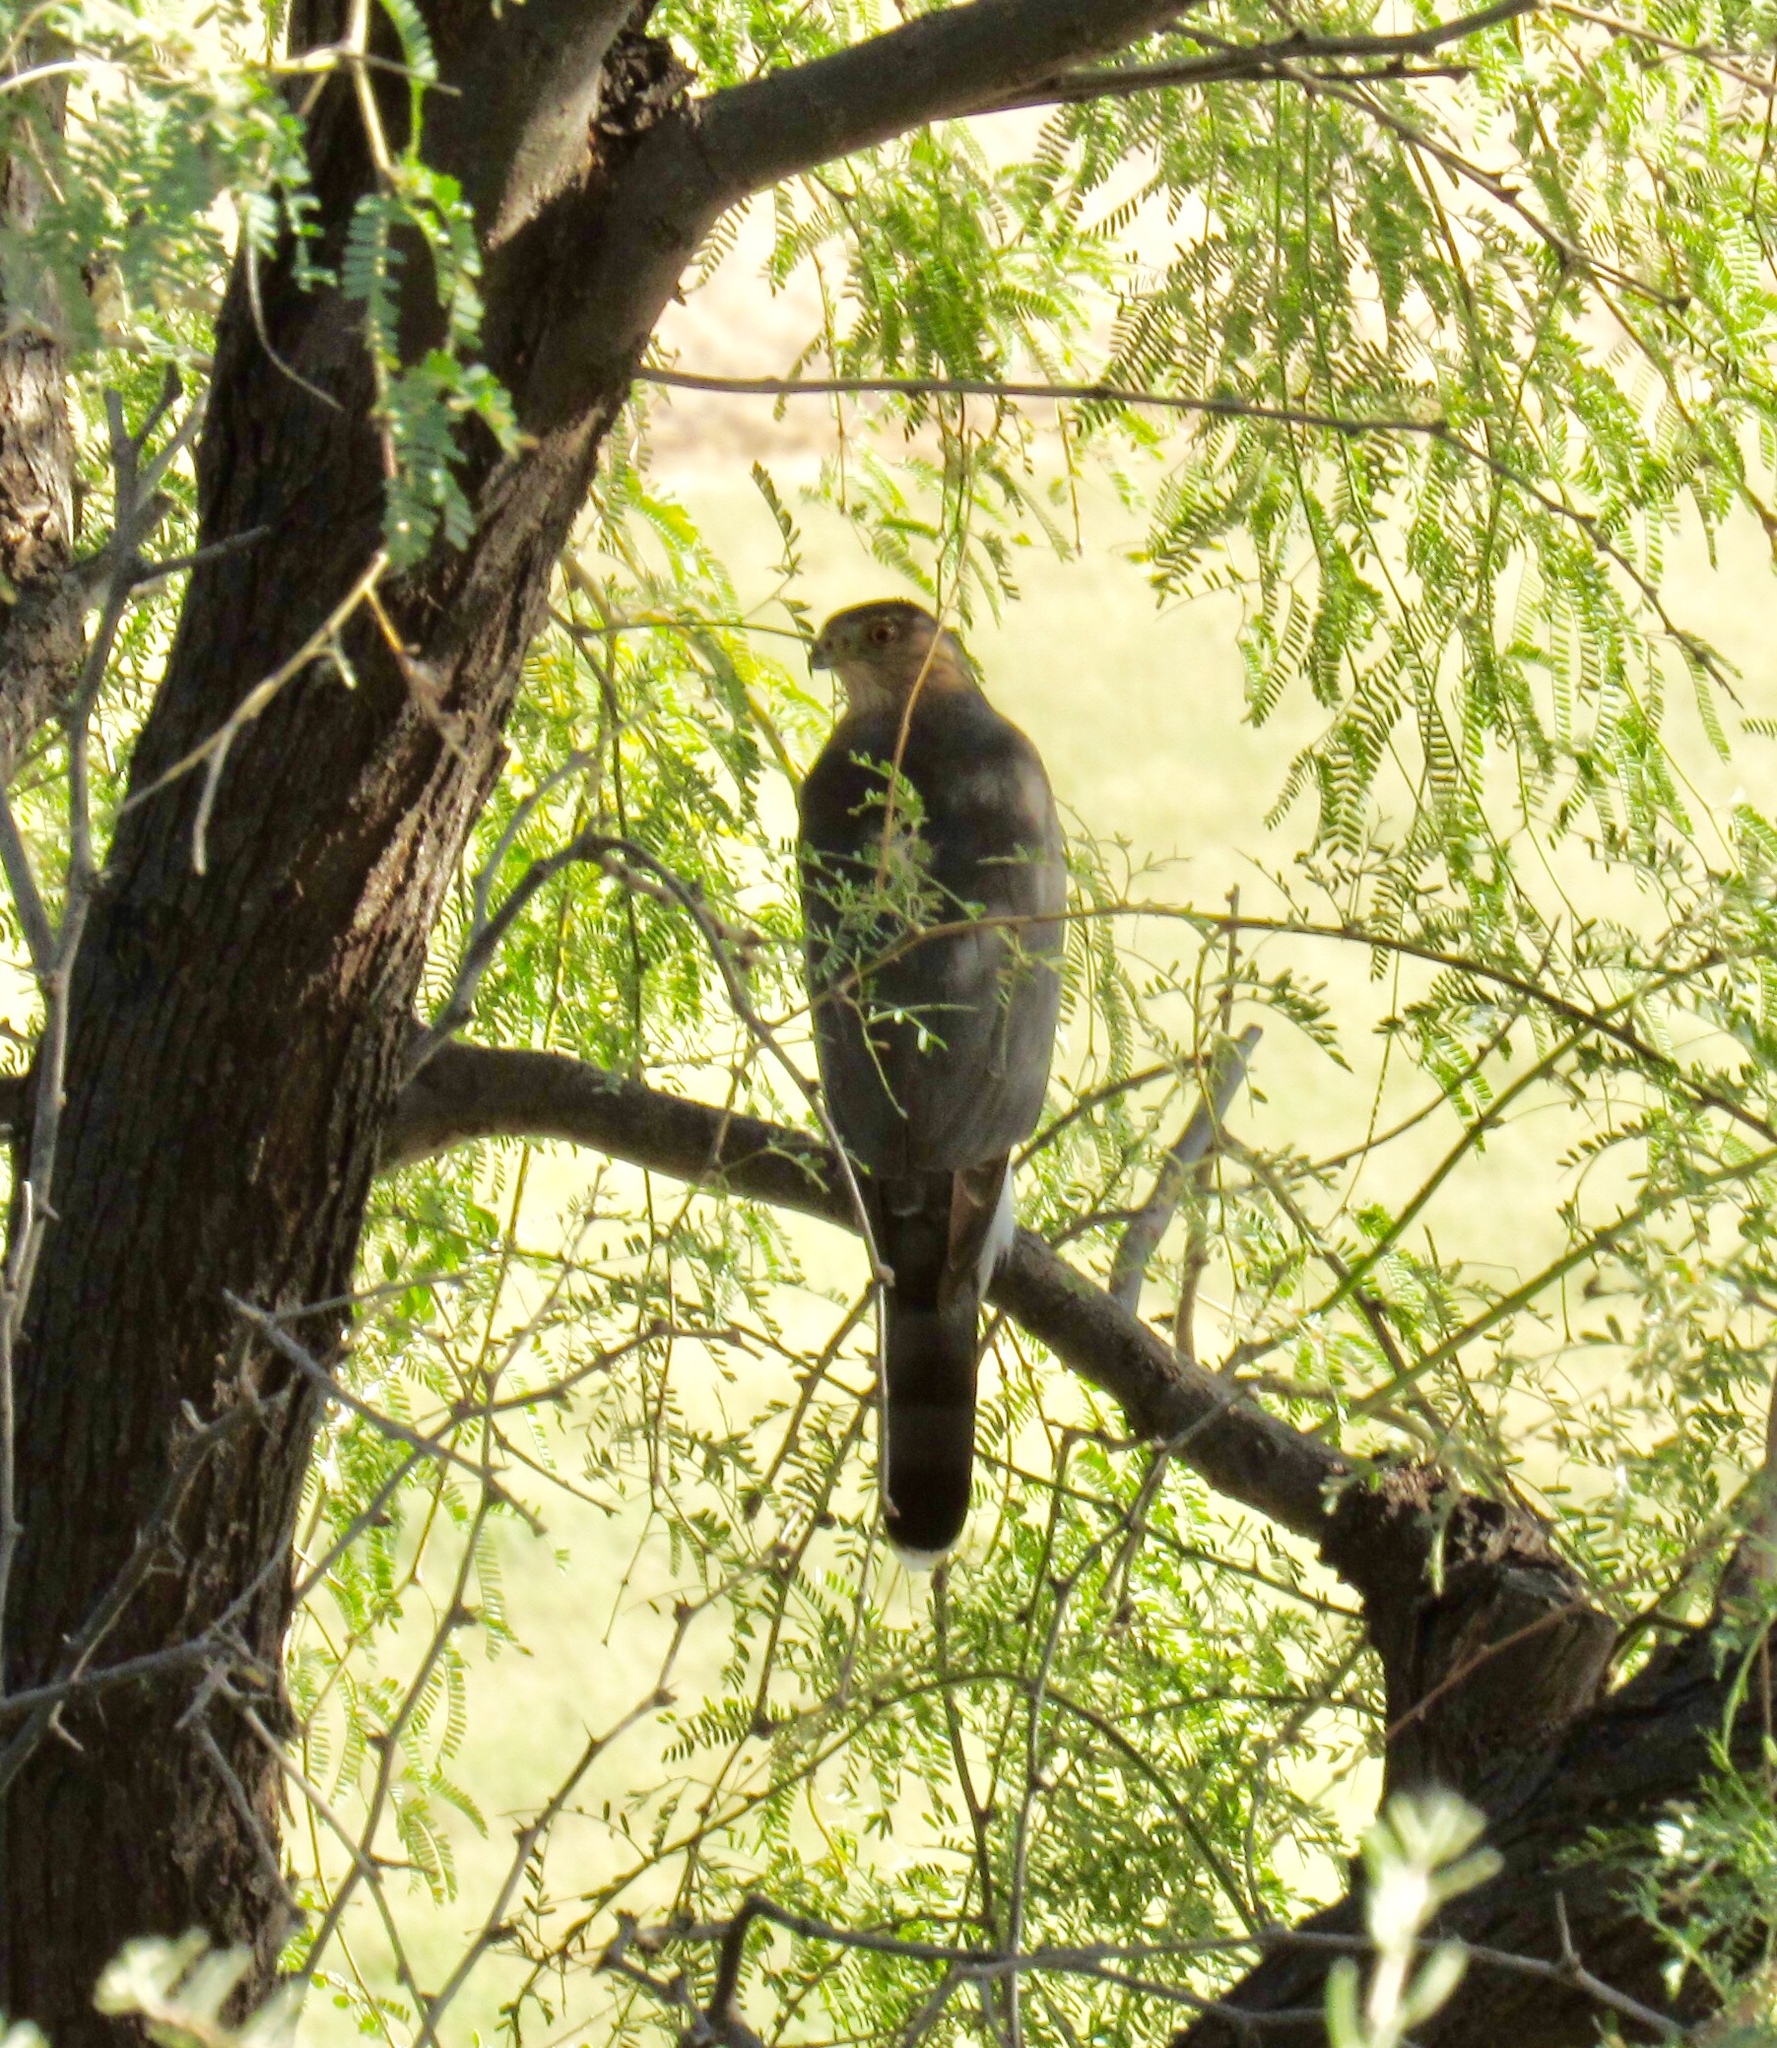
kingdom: Animalia
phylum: Chordata
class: Aves
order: Accipitriformes
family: Accipitridae
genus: Accipiter
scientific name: Accipiter cooperii
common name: Cooper's hawk
